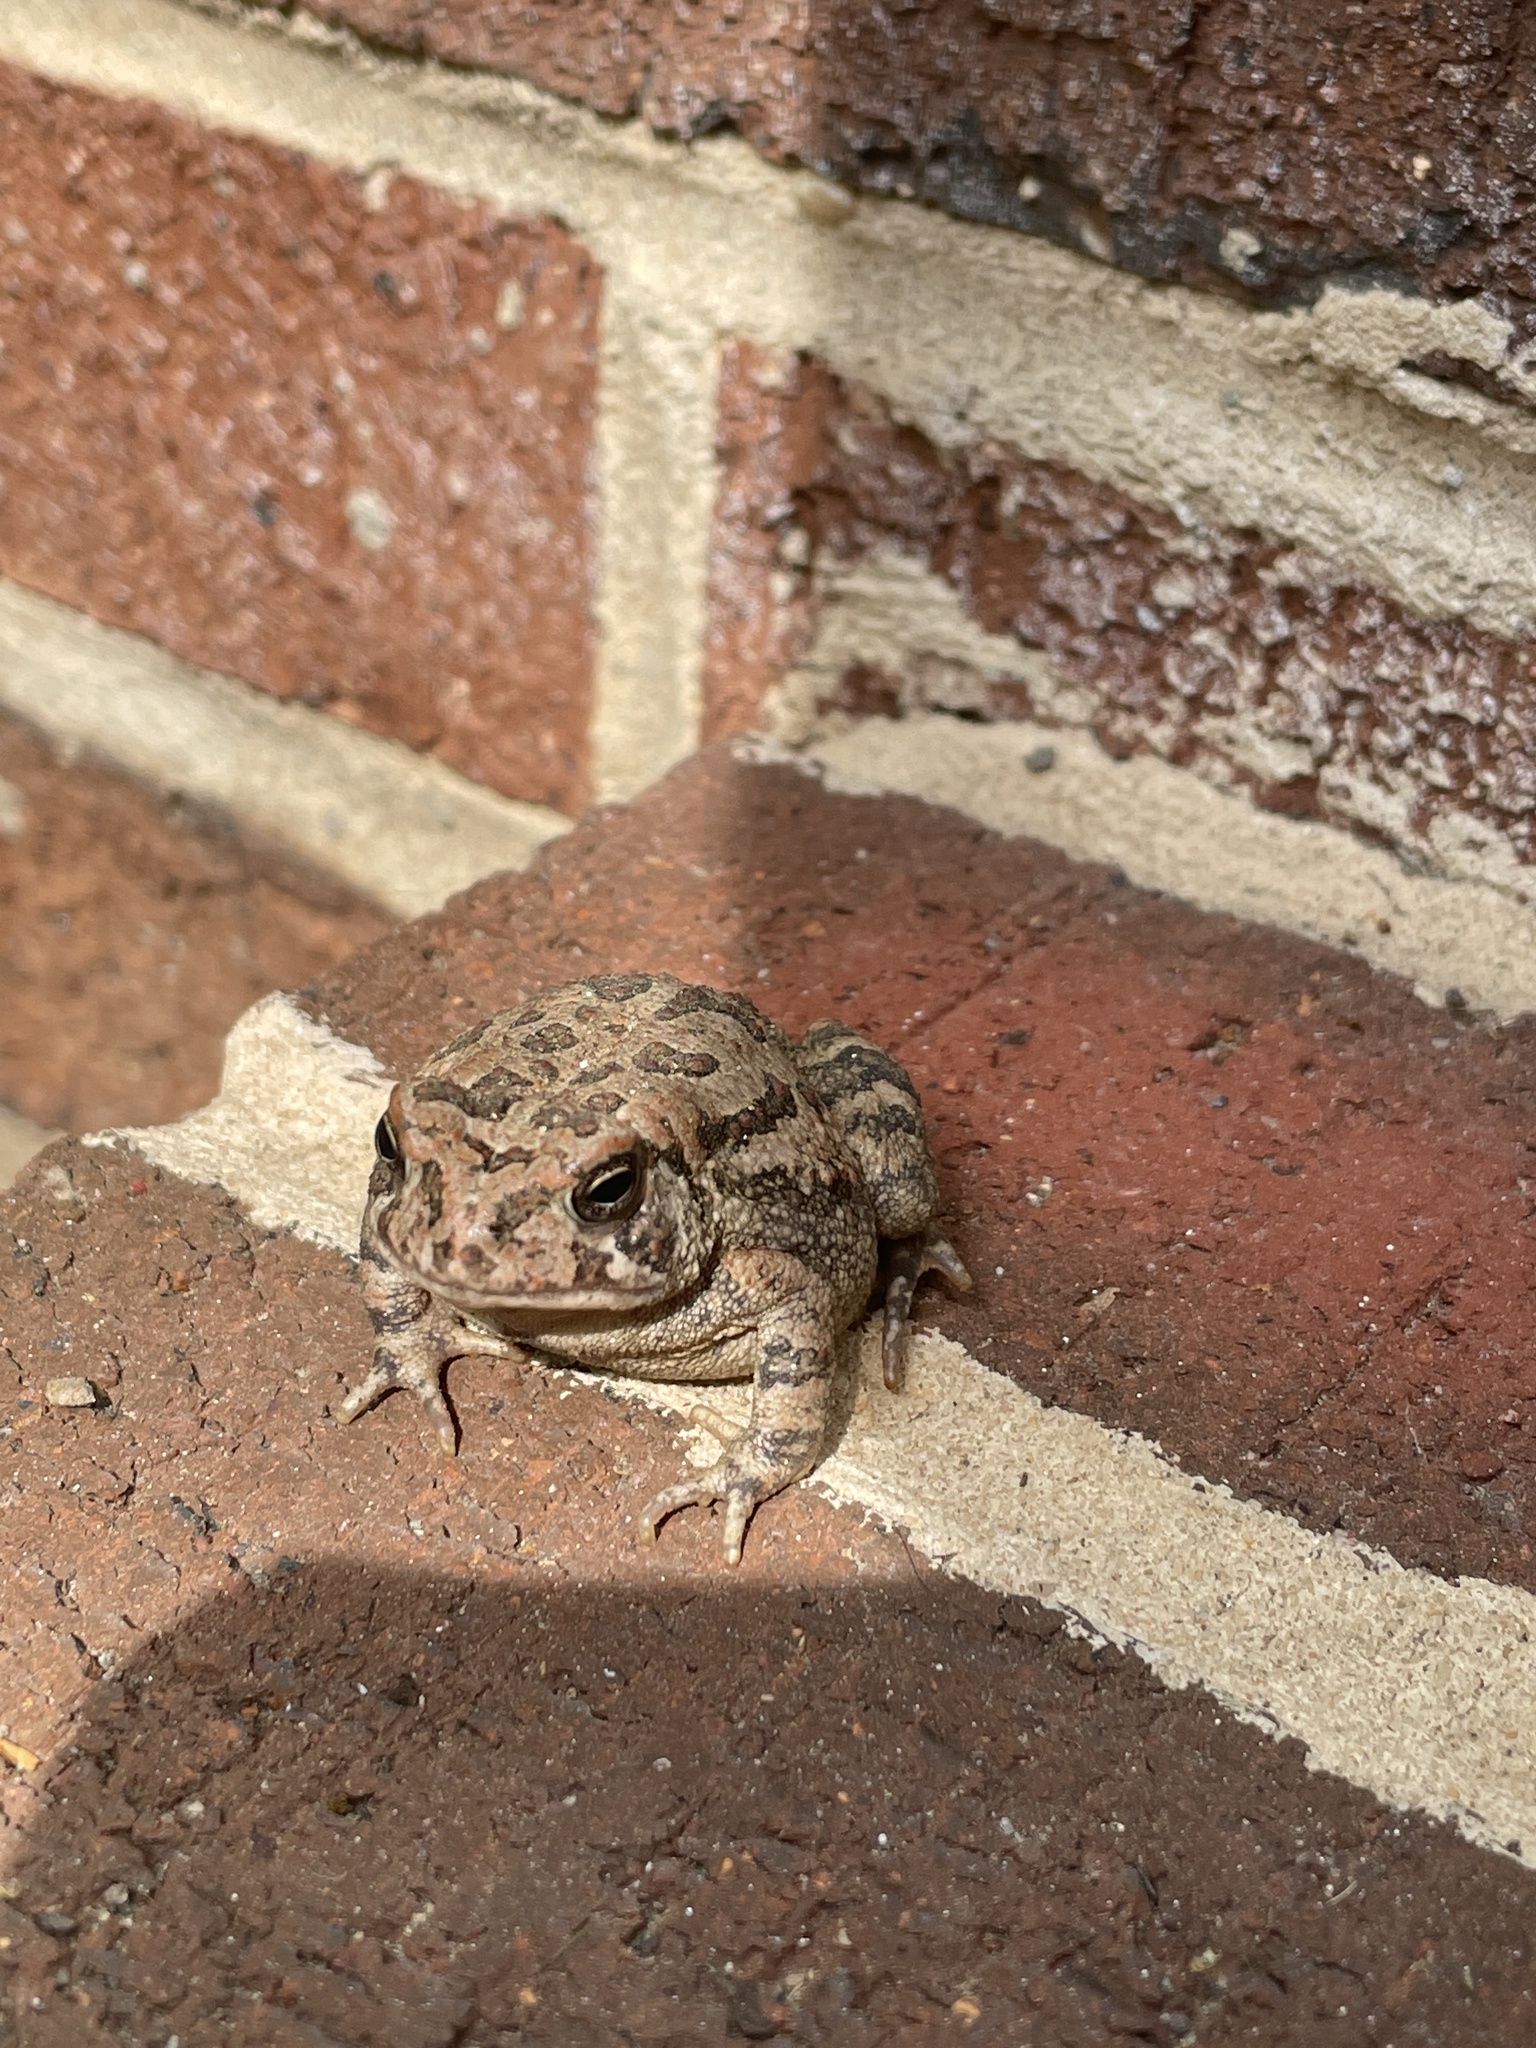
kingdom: Animalia
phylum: Chordata
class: Amphibia
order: Anura
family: Bufonidae
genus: Anaxyrus
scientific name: Anaxyrus fowleri
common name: Fowler's toad
